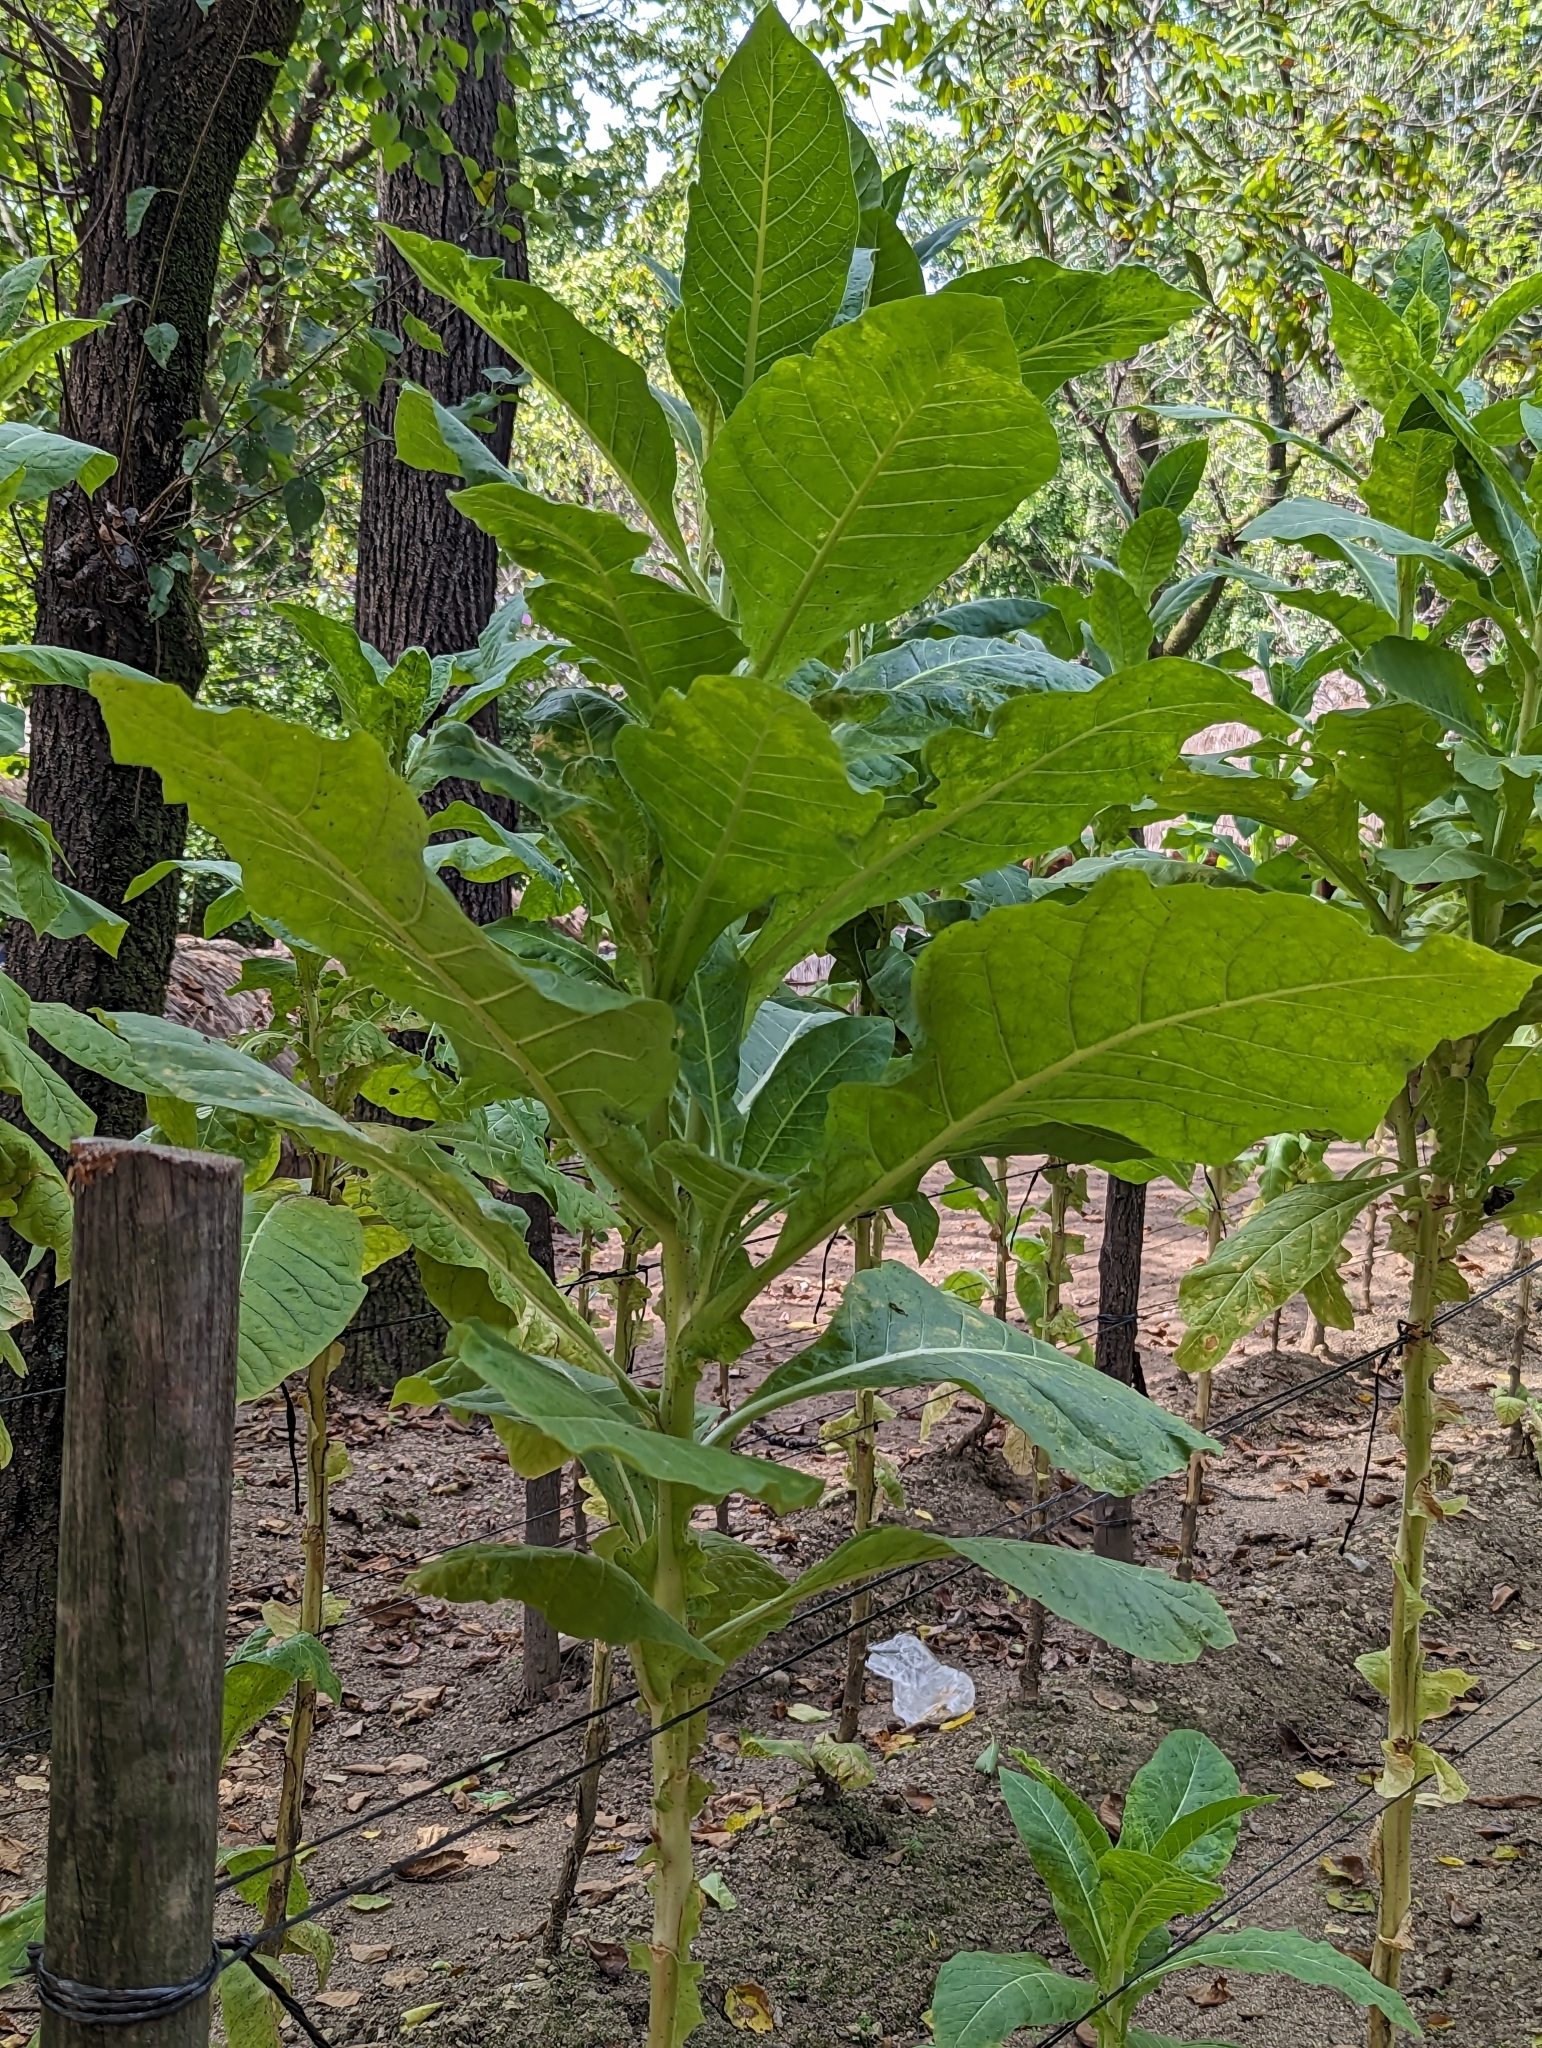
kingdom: Plantae
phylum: Tracheophyta
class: Magnoliopsida
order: Solanales
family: Solanaceae
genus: Nicotiana
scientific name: Nicotiana tabacum
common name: Tobacco
